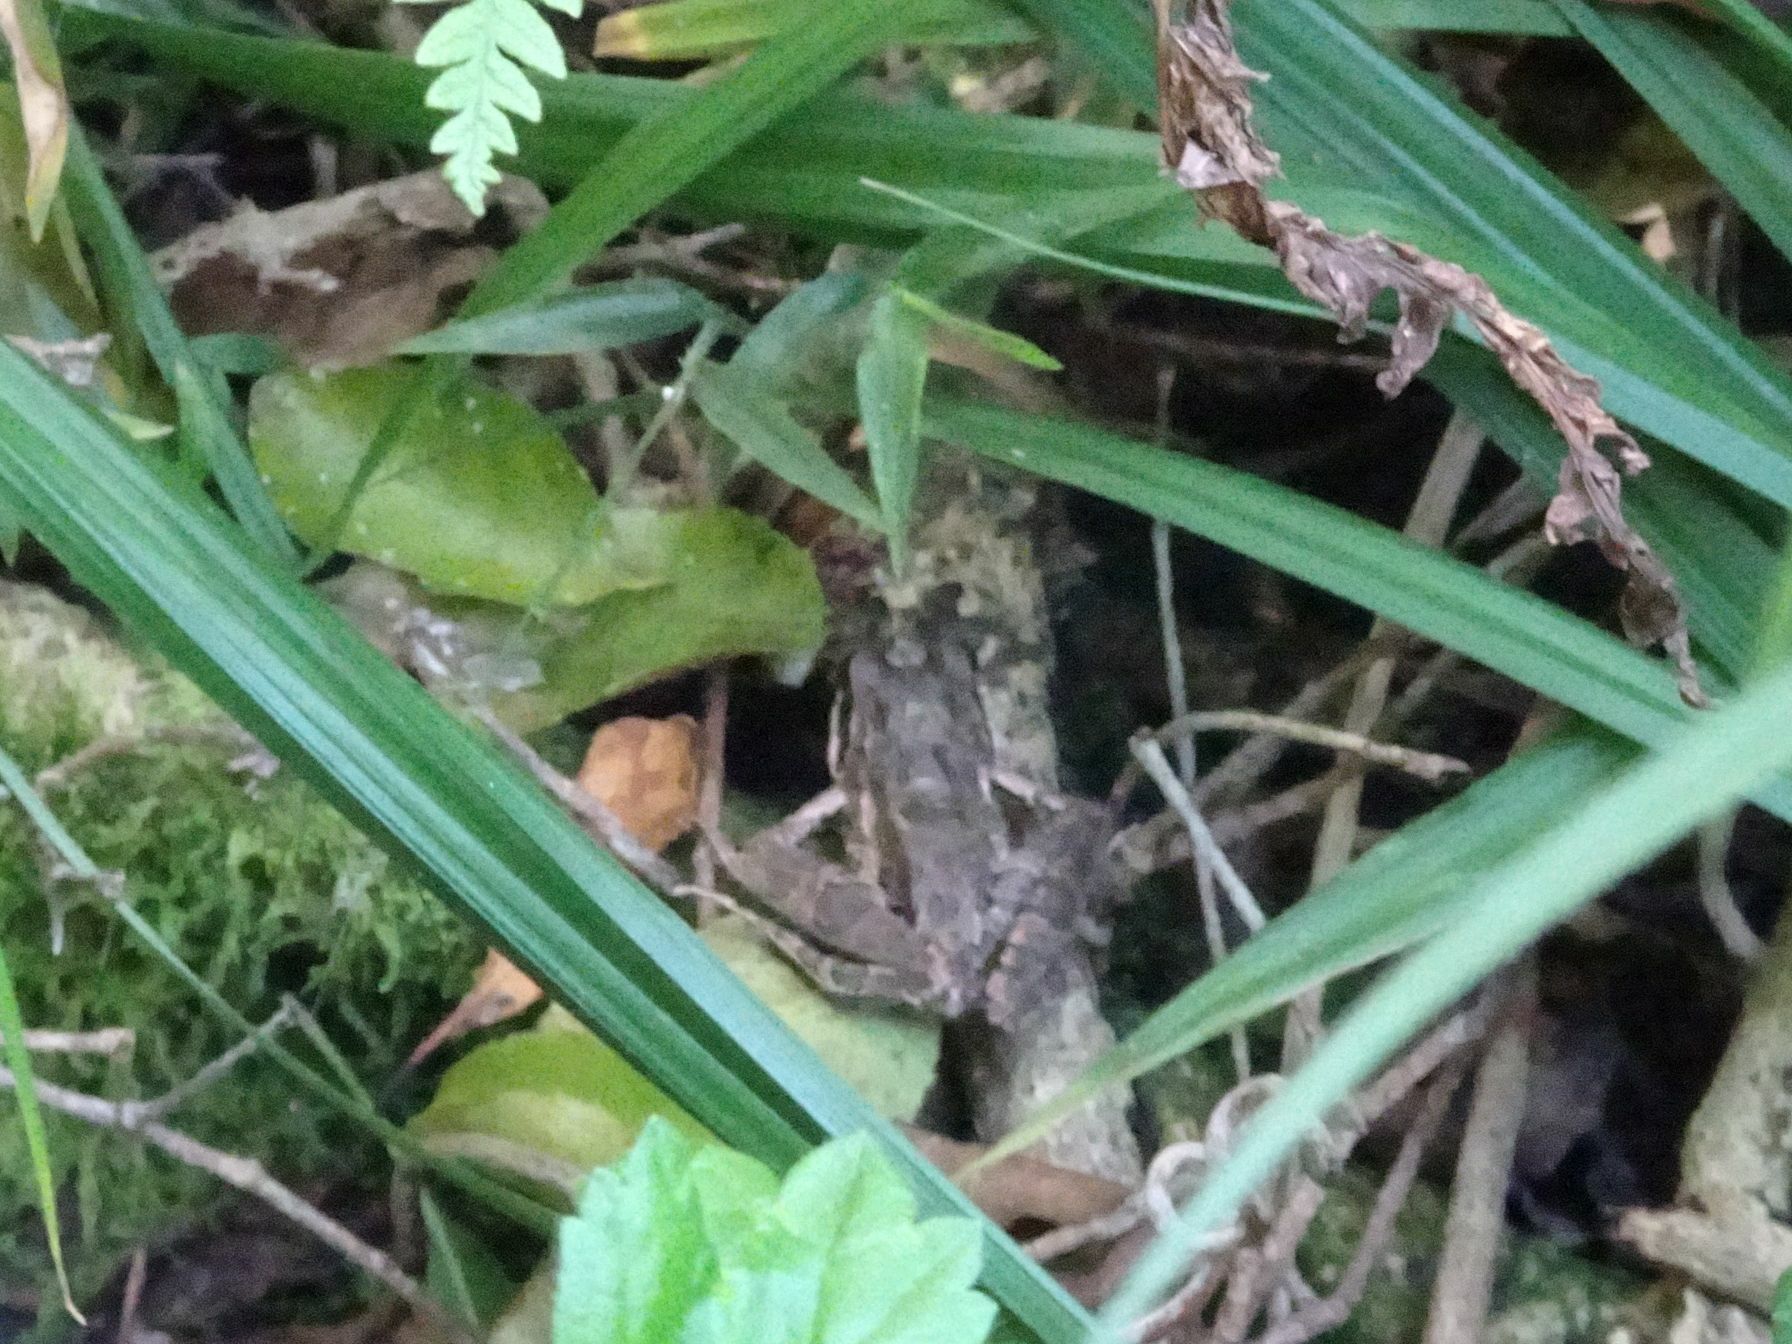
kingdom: Animalia
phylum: Chordata
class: Amphibia
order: Anura
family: Pyxicephalidae
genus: Strongylopus
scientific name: Strongylopus grayii
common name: Gray's stream frog
